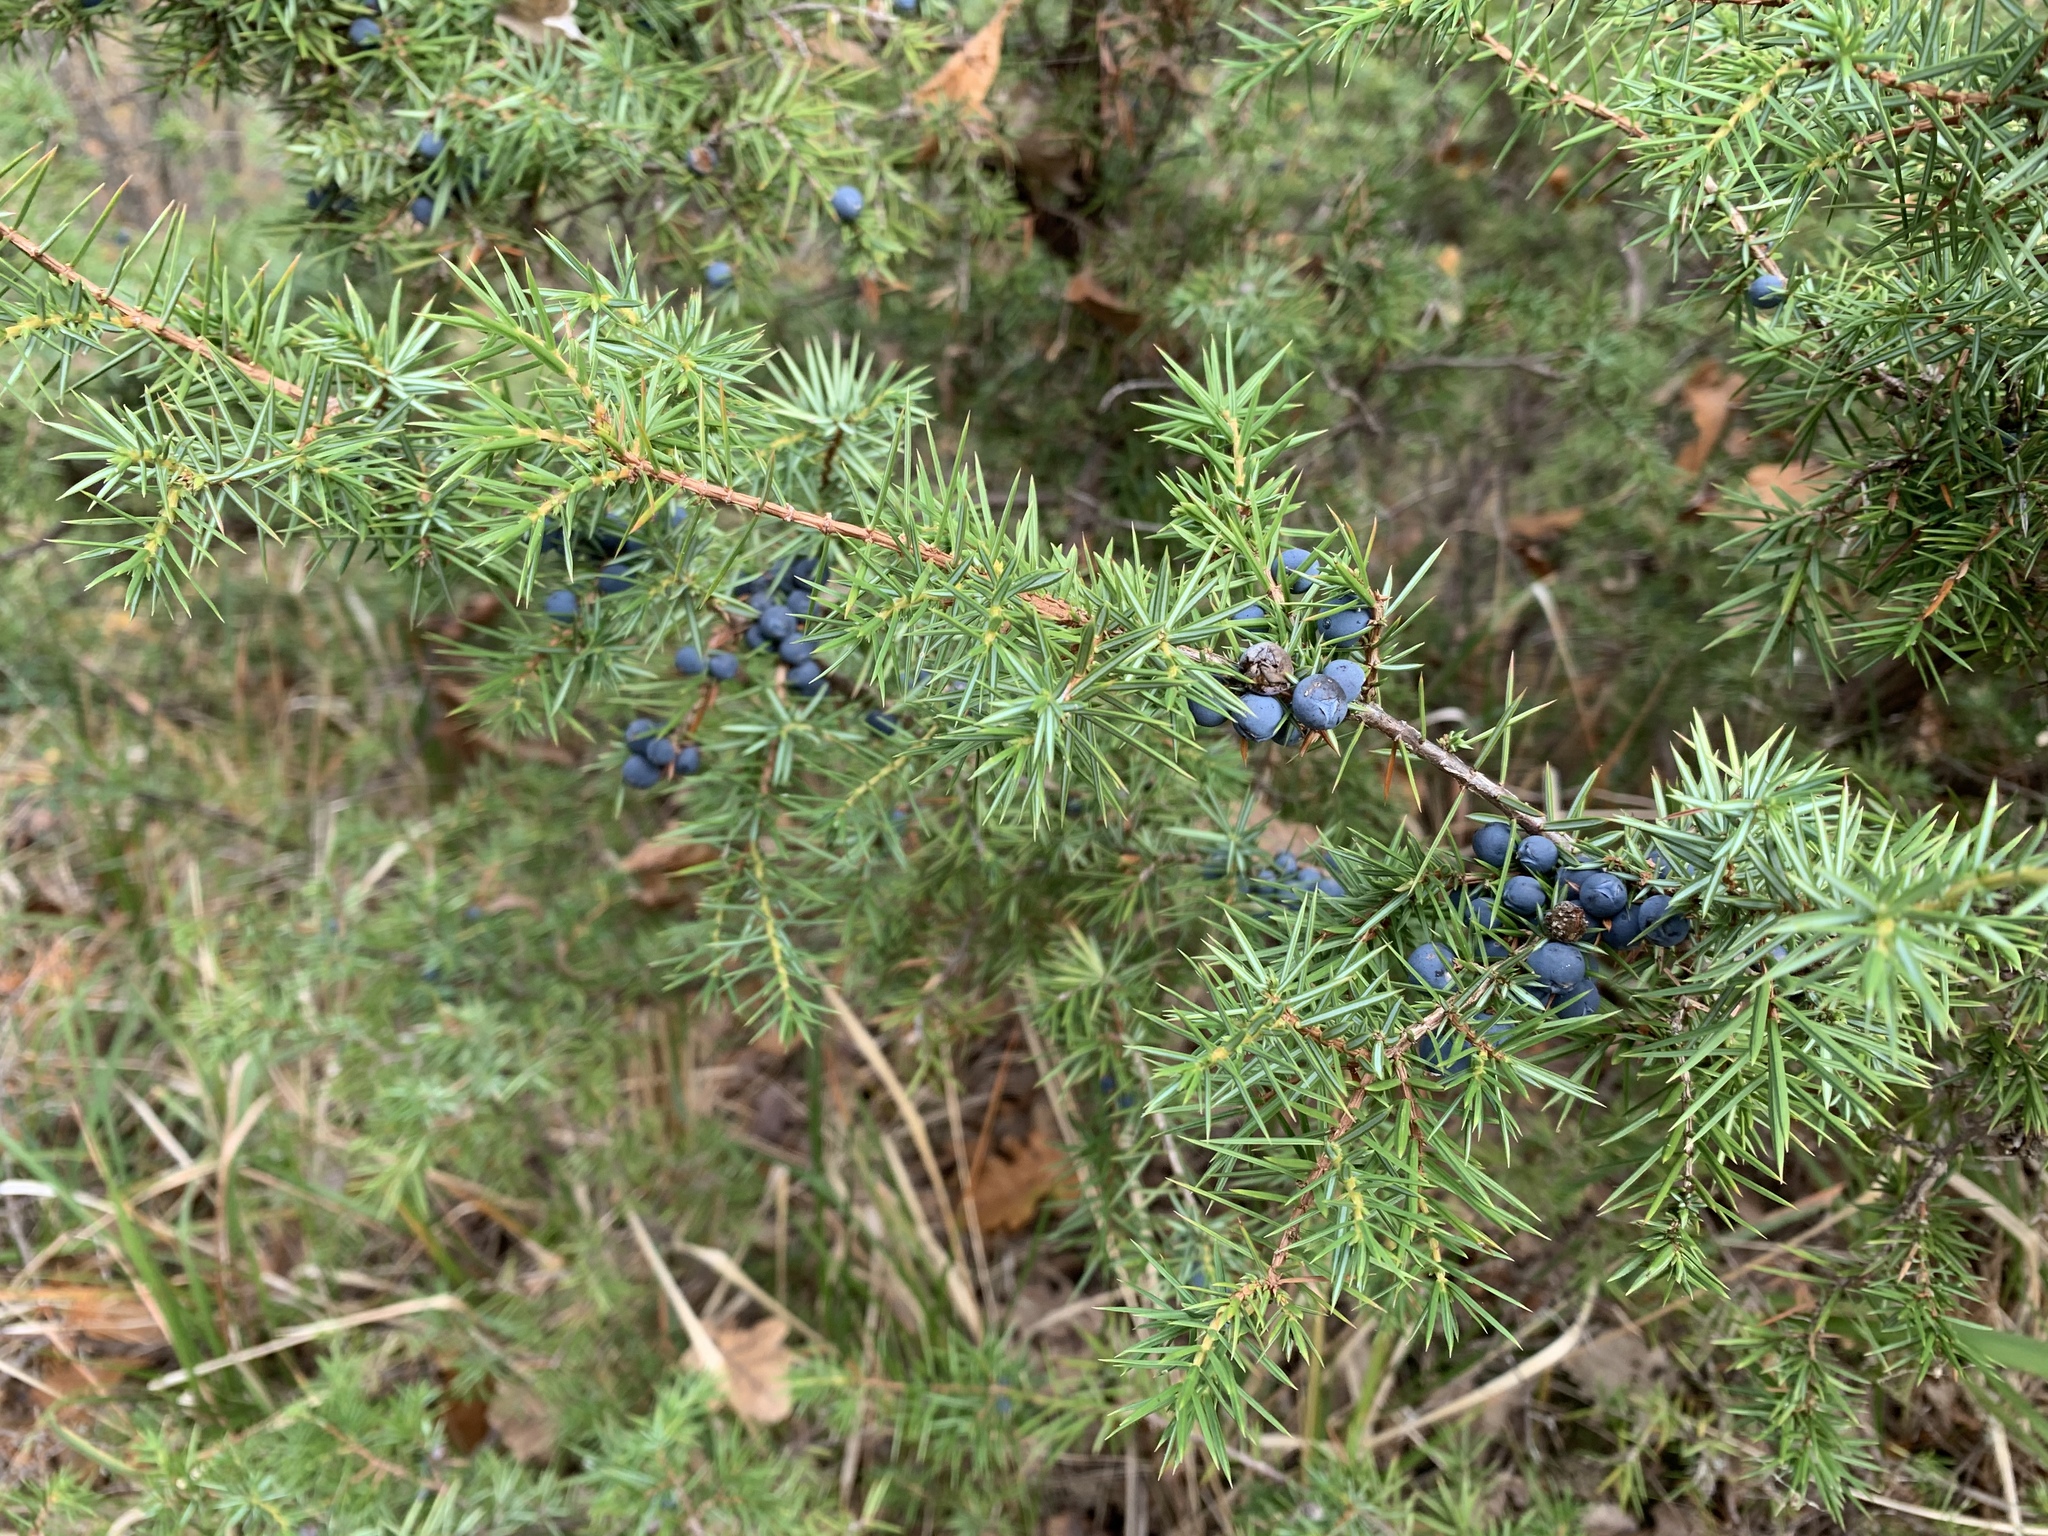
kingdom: Plantae
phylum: Tracheophyta
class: Pinopsida
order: Pinales
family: Cupressaceae
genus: Juniperus
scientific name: Juniperus communis
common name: Common juniper
